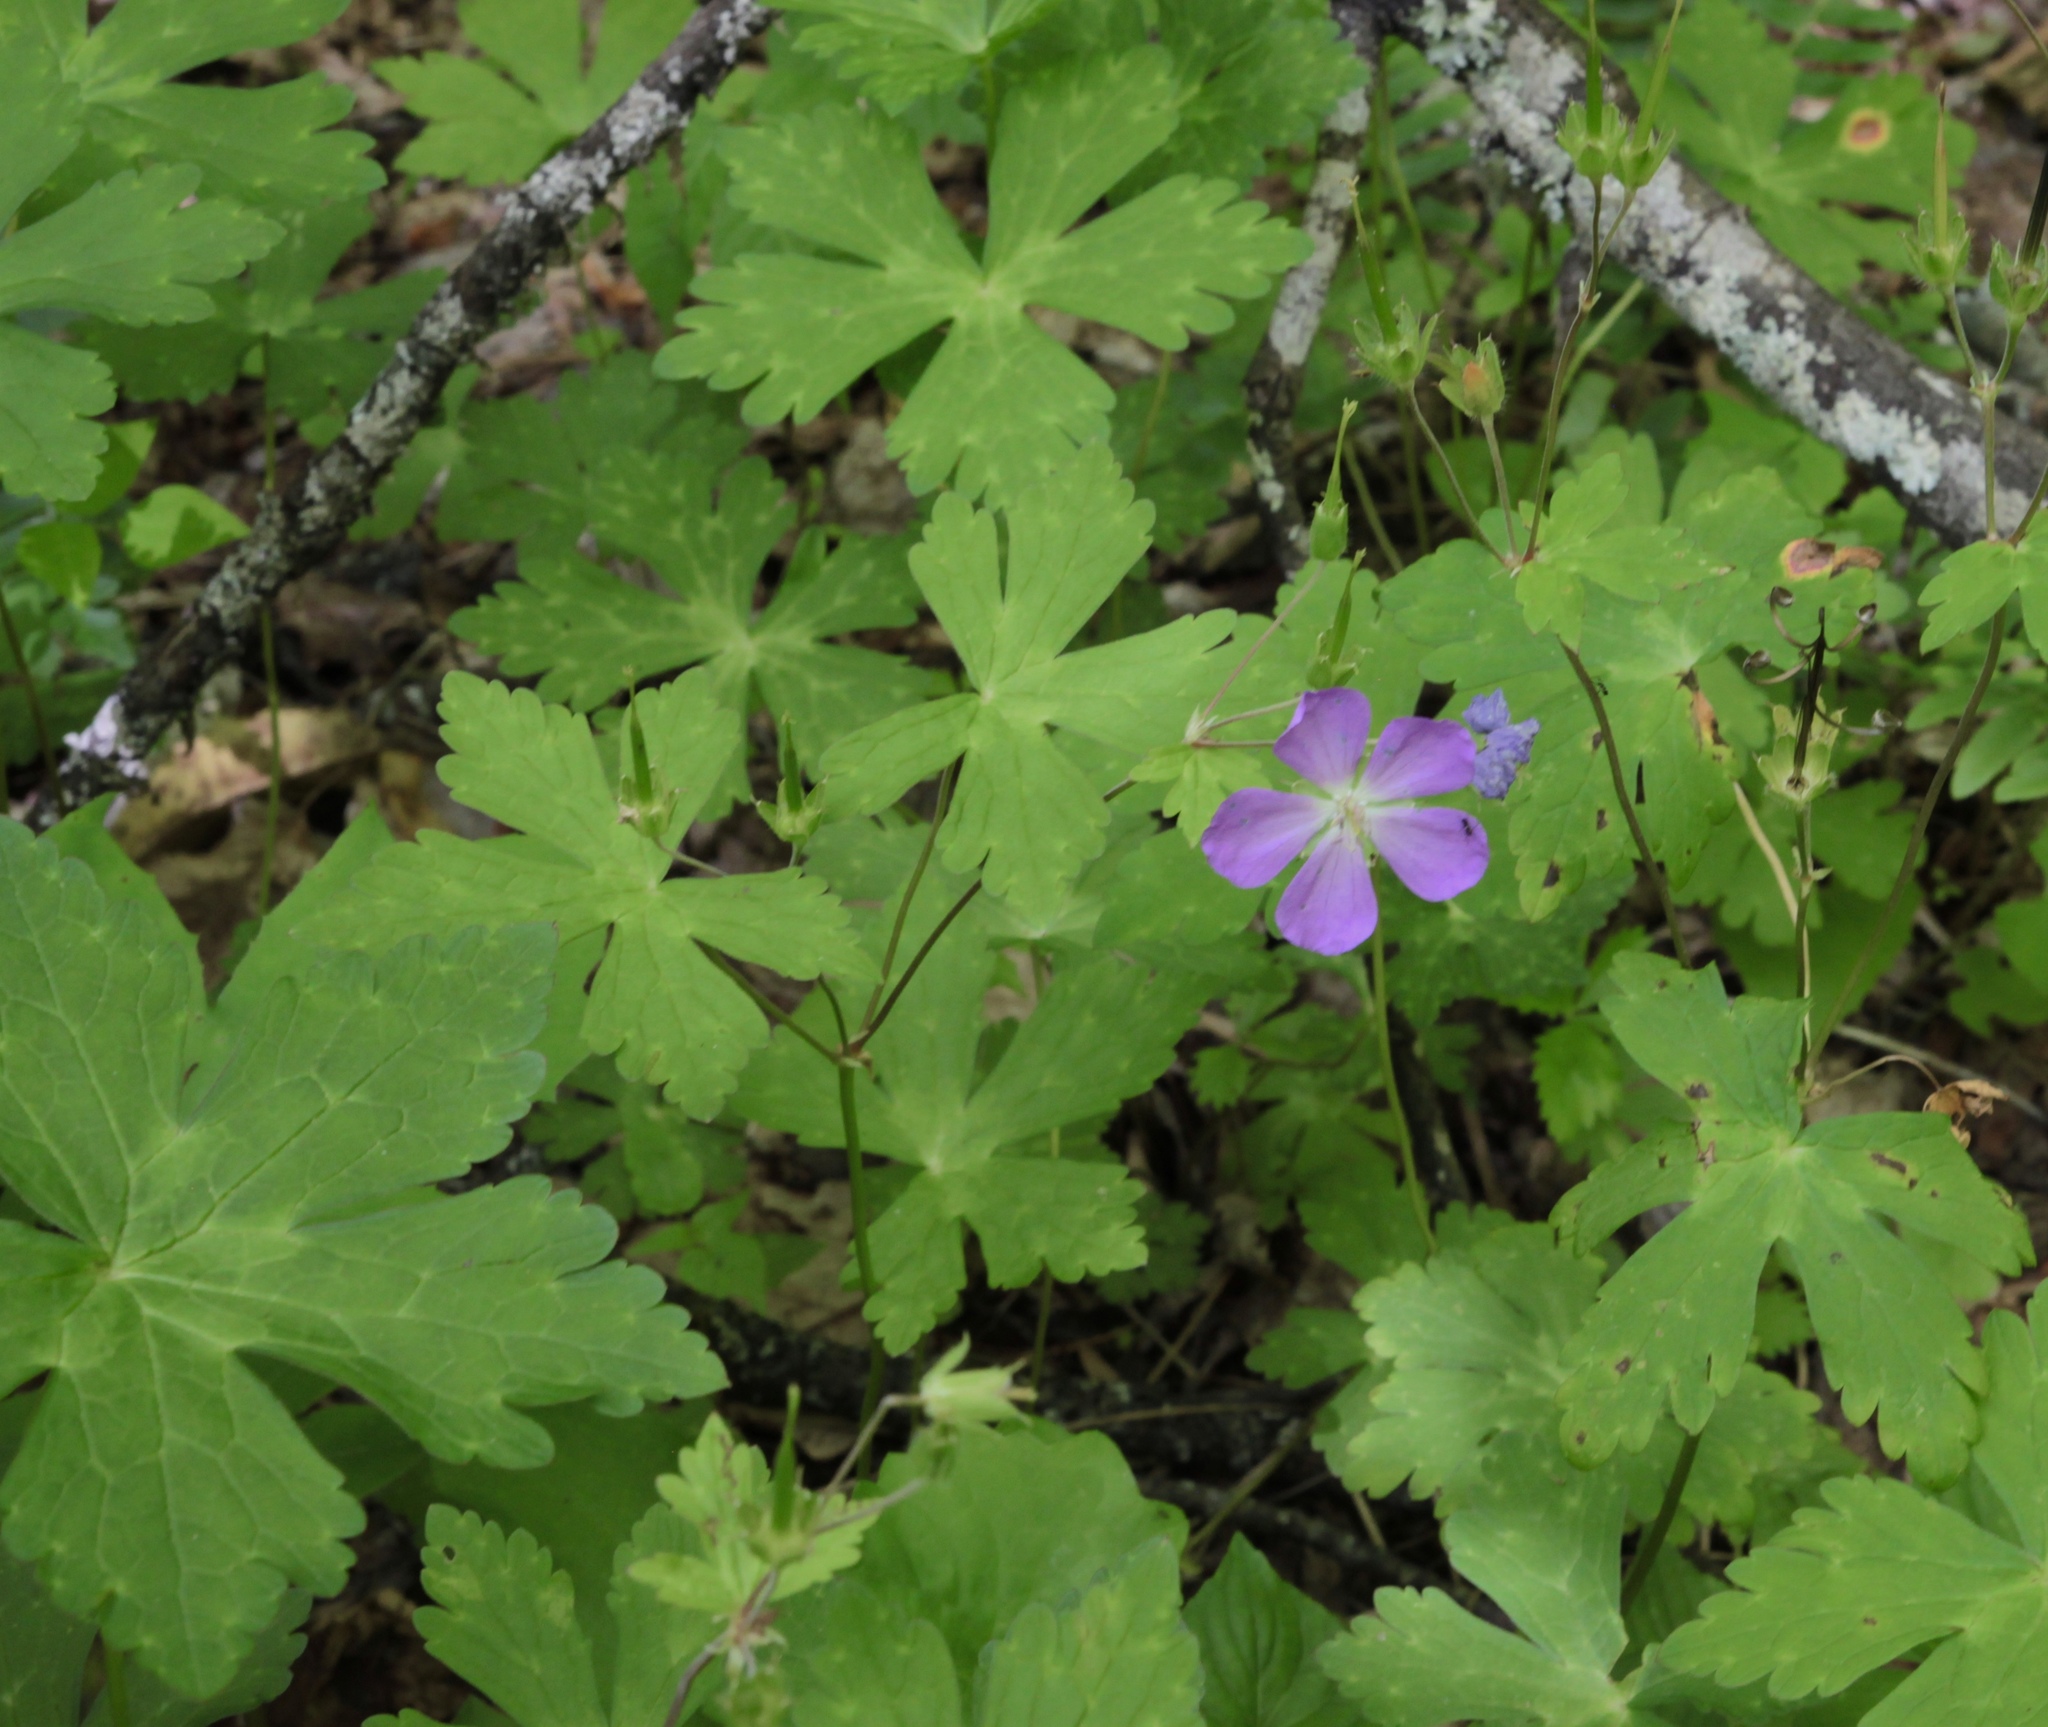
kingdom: Plantae
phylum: Tracheophyta
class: Magnoliopsida
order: Geraniales
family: Geraniaceae
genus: Geranium
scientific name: Geranium maculatum
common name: Spotted geranium
